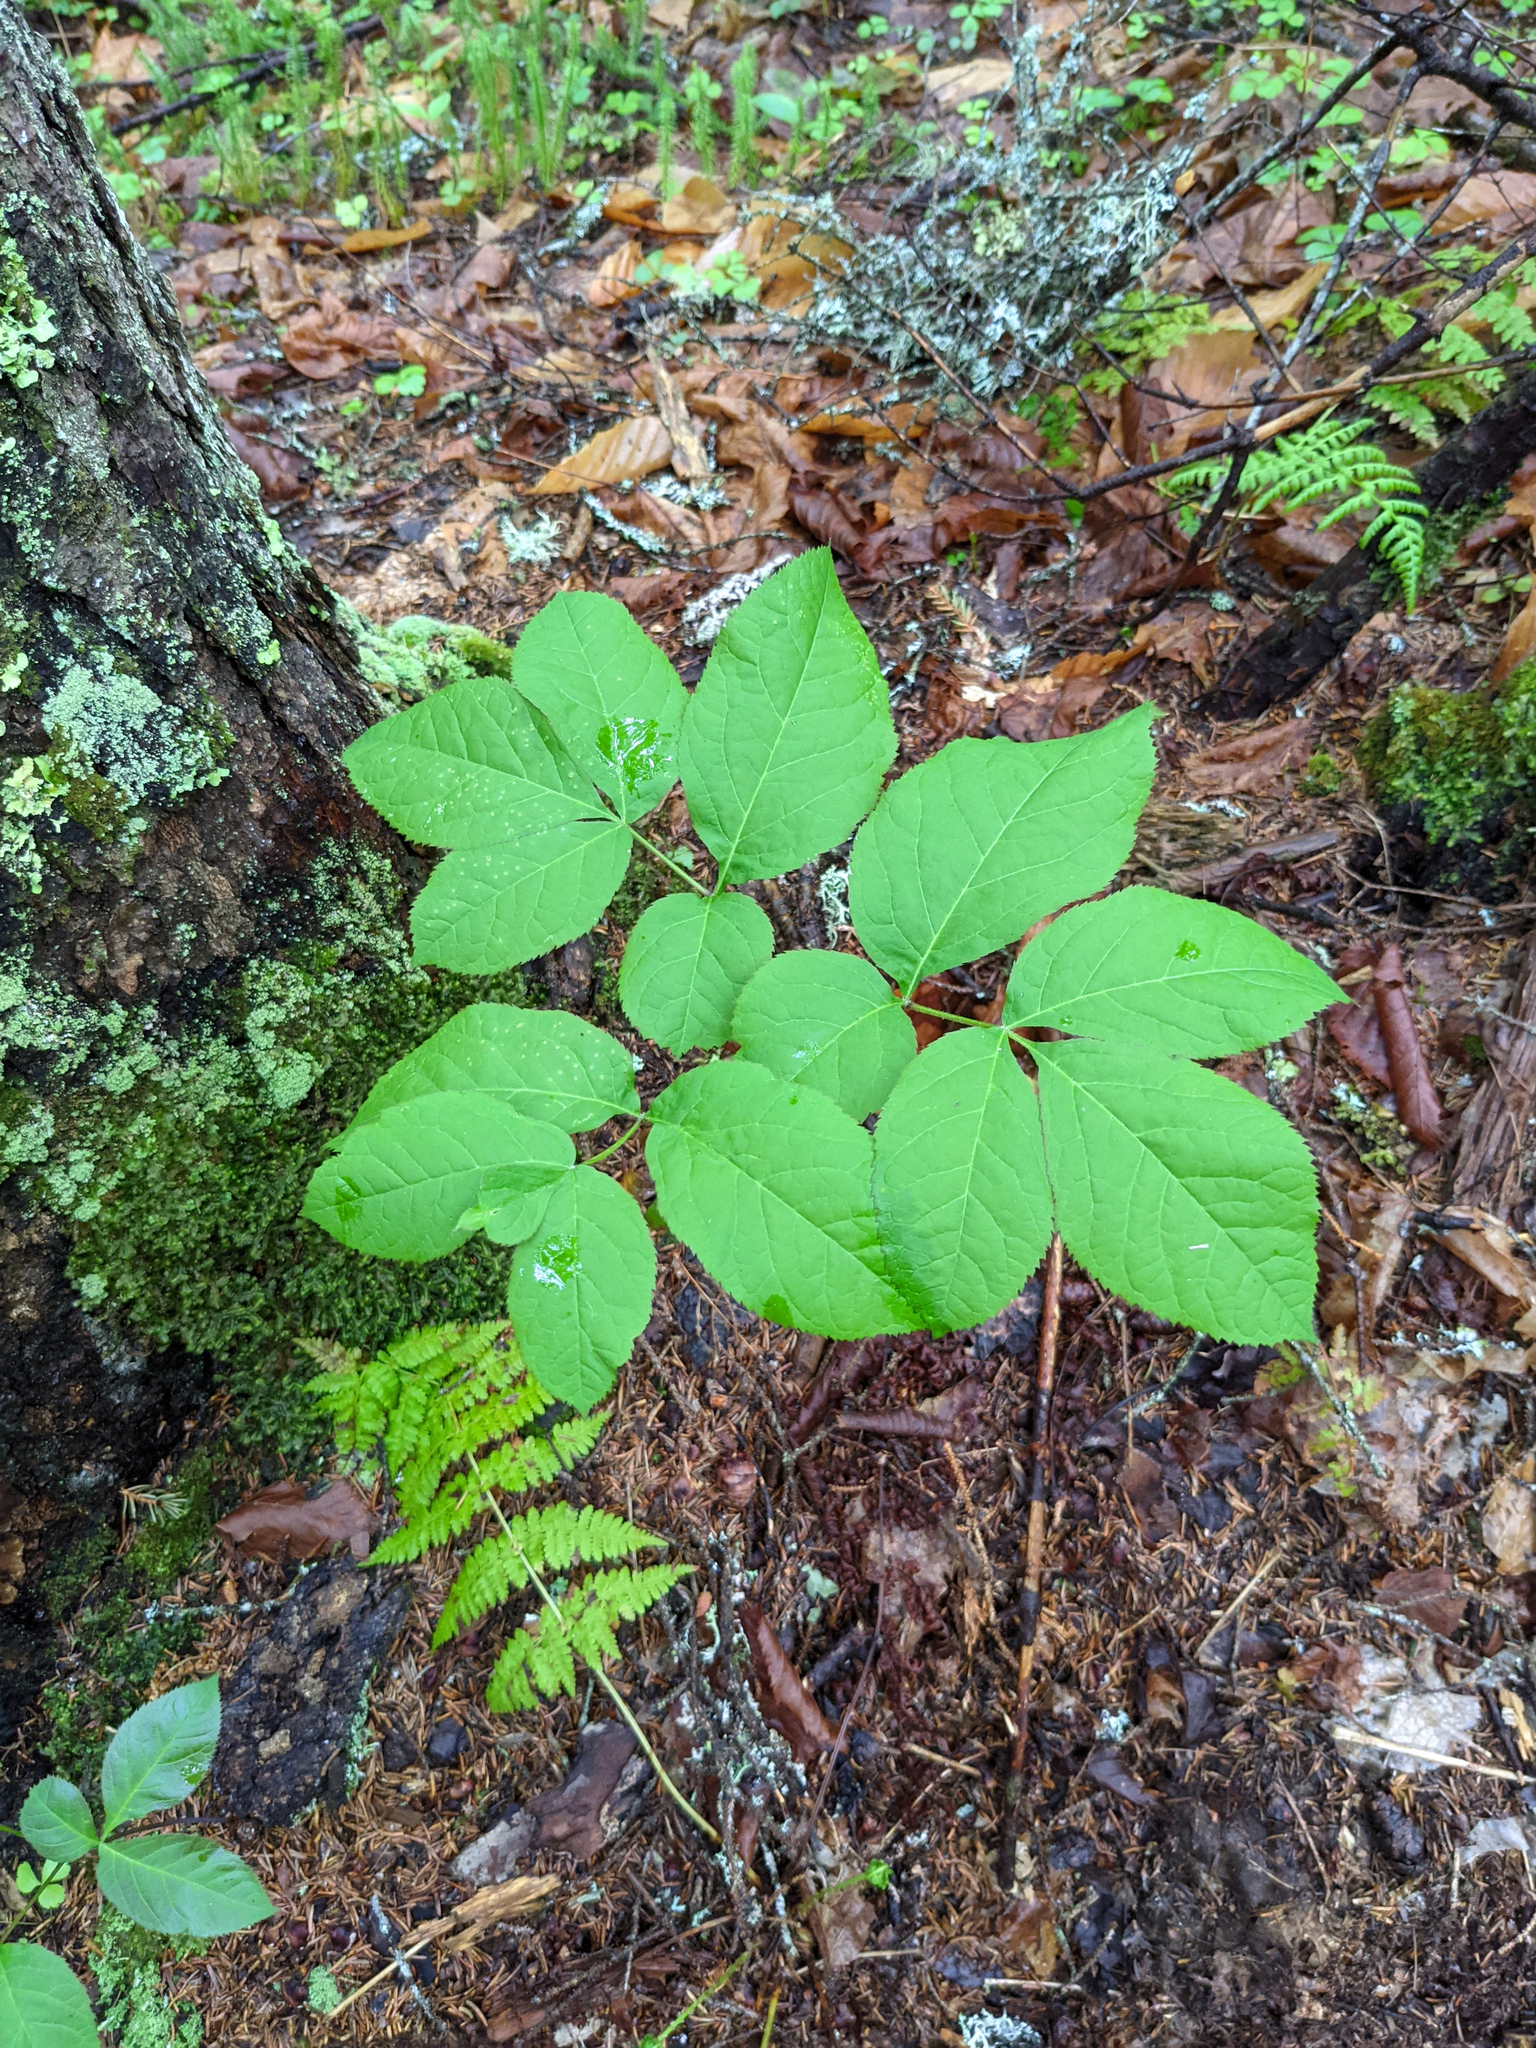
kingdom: Plantae
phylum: Tracheophyta
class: Magnoliopsida
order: Apiales
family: Araliaceae
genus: Aralia
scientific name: Aralia nudicaulis
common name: Wild sarsaparilla
